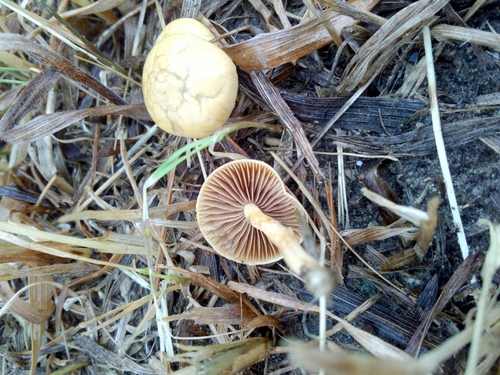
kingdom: Fungi
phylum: Basidiomycota
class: Agaricomycetes
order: Agaricales
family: Strophariaceae
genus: Agrocybe
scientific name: Agrocybe pediades
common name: Common fieldcap
